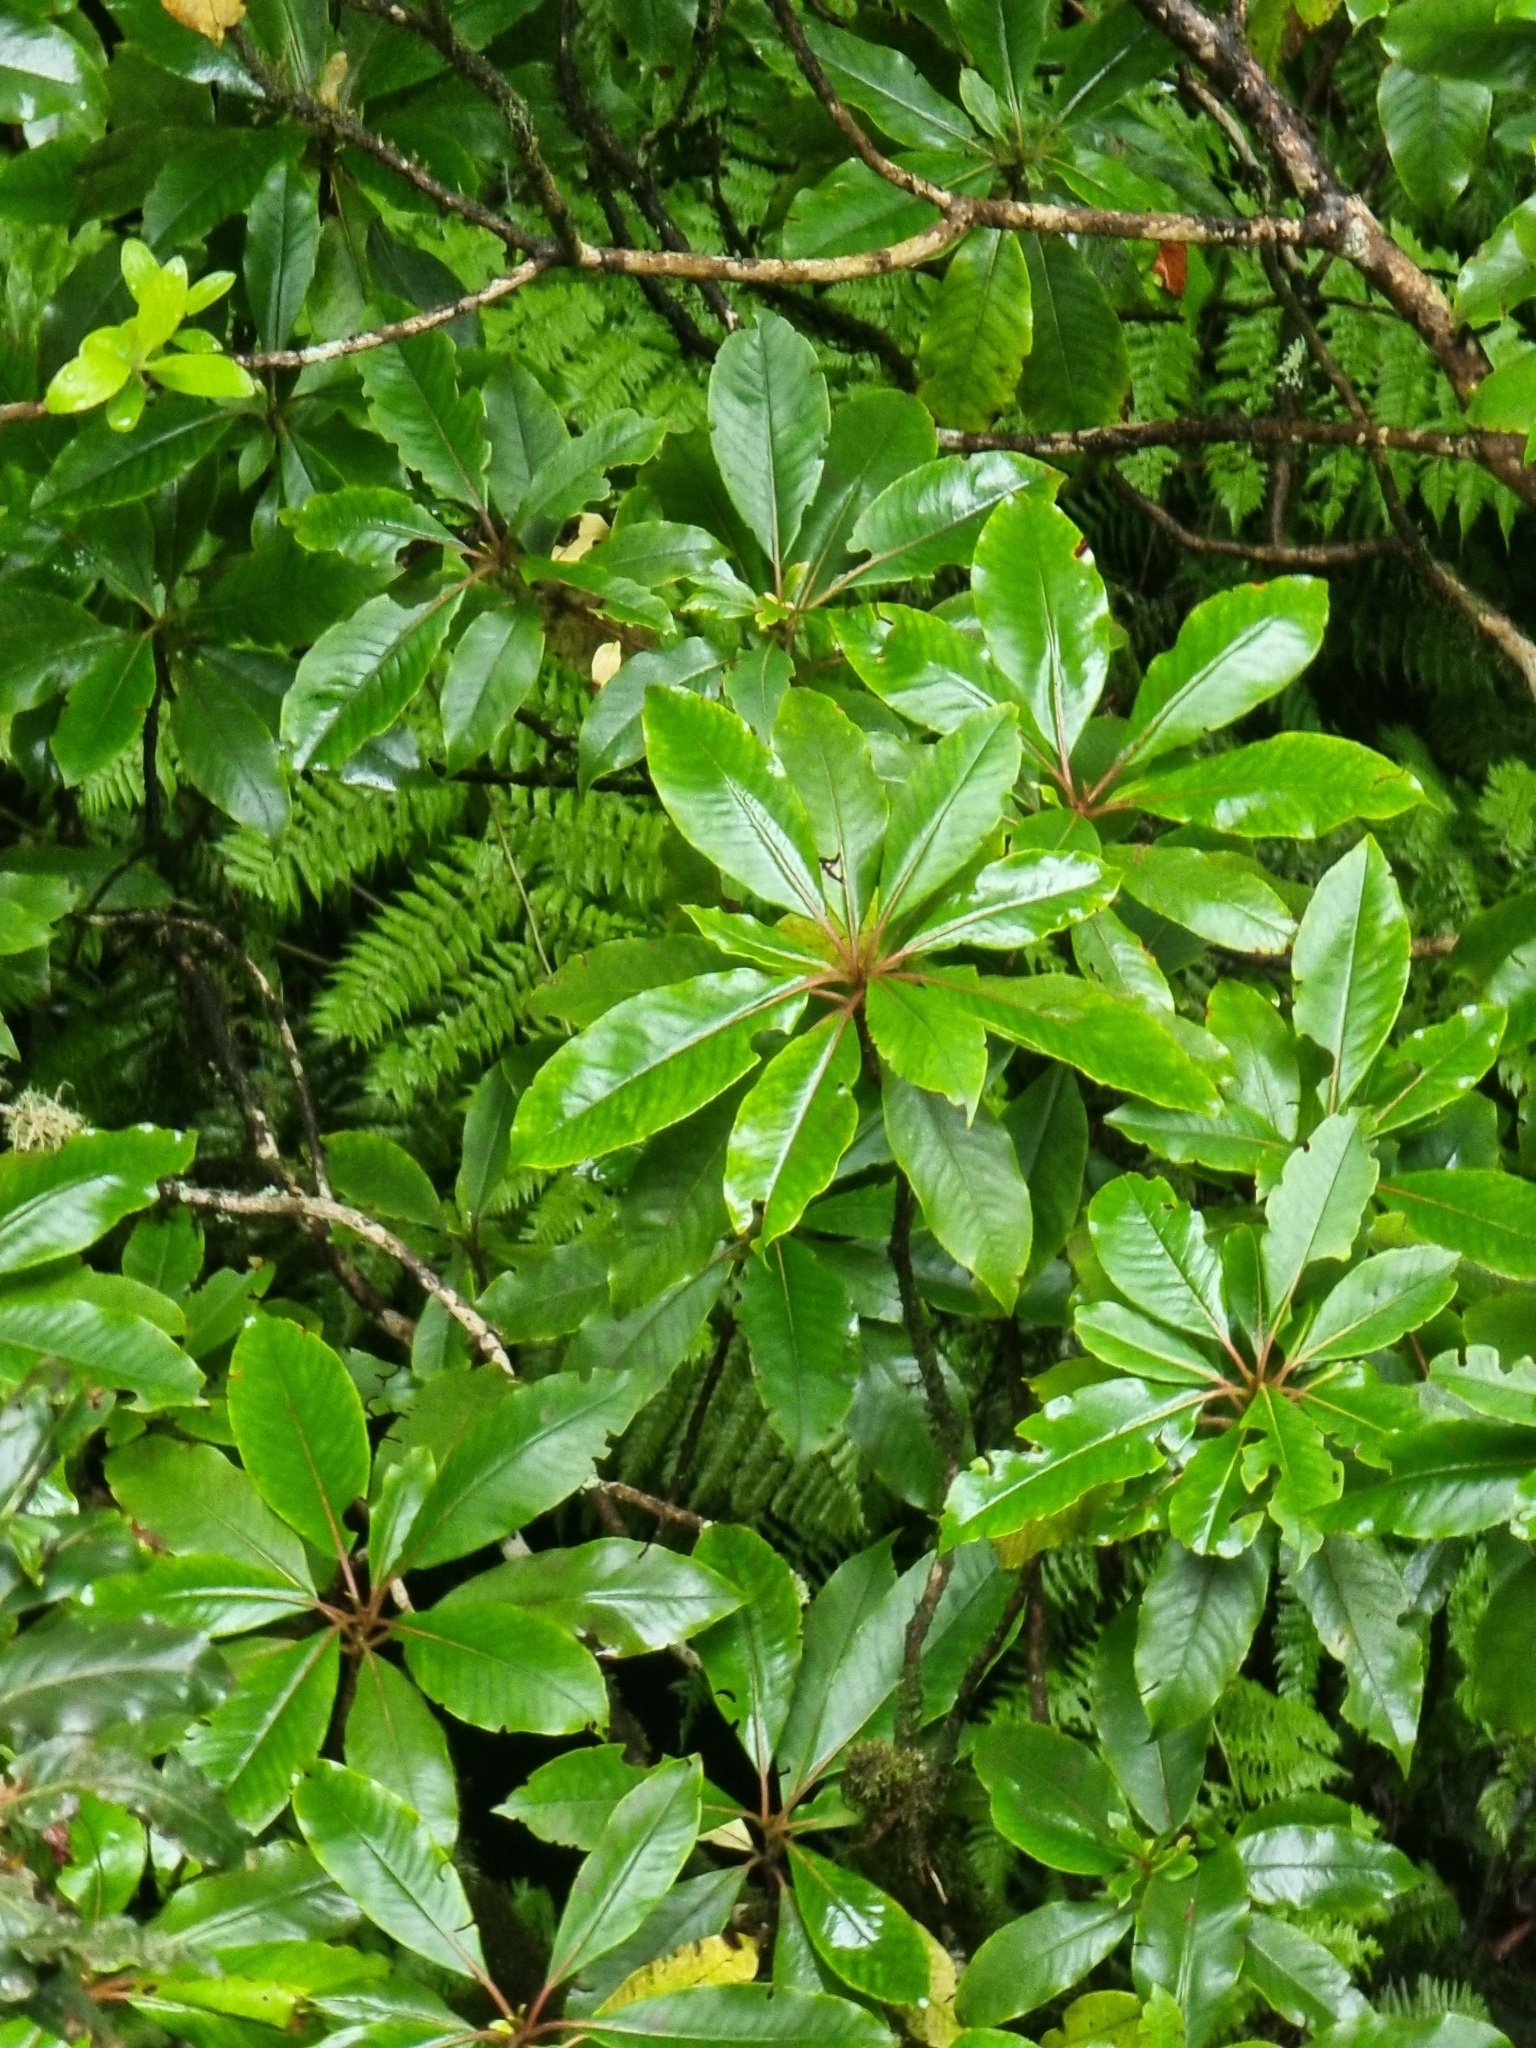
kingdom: Plantae
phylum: Tracheophyta
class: Magnoliopsida
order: Ericales
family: Clethraceae
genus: Clethra
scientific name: Clethra arborea
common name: Lily-of-the-valley-tree
